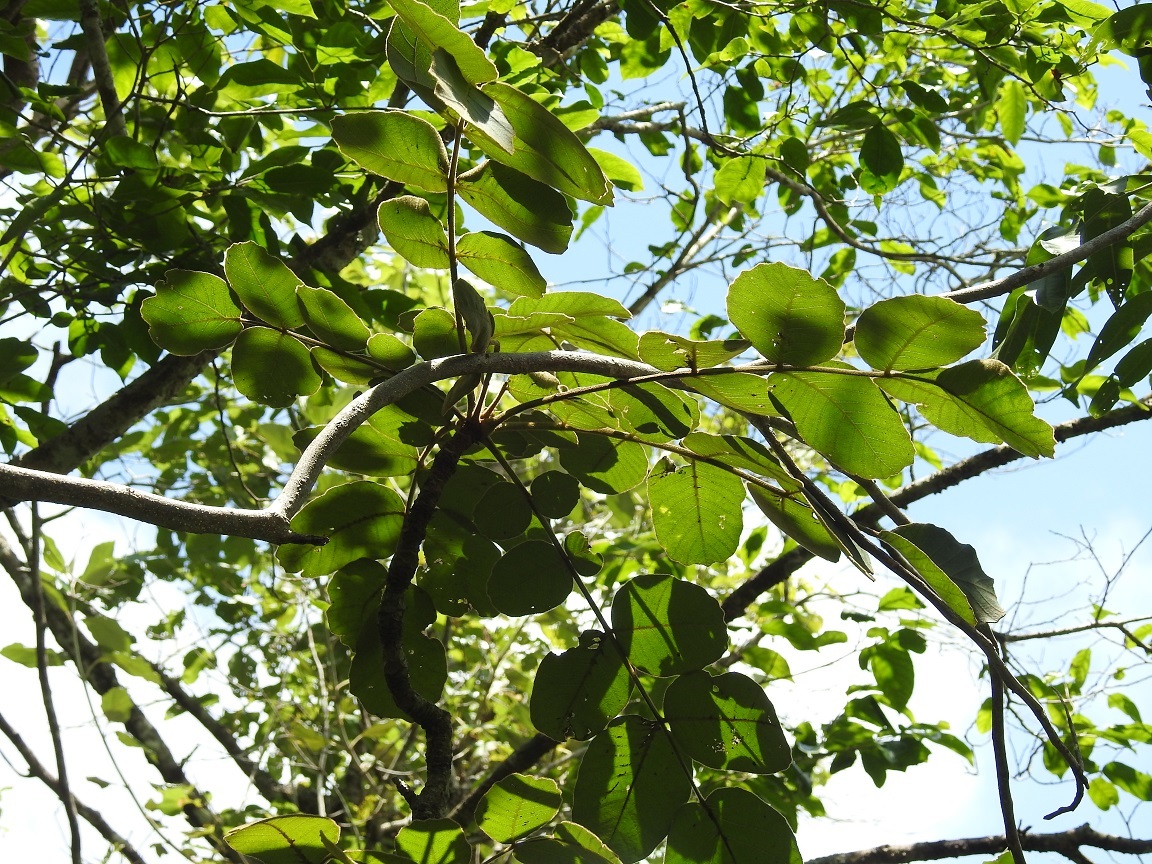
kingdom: Plantae
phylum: Tracheophyta
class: Magnoliopsida
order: Sapindales
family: Anacardiaceae
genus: Comocladia
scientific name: Comocladia guatemalensis
